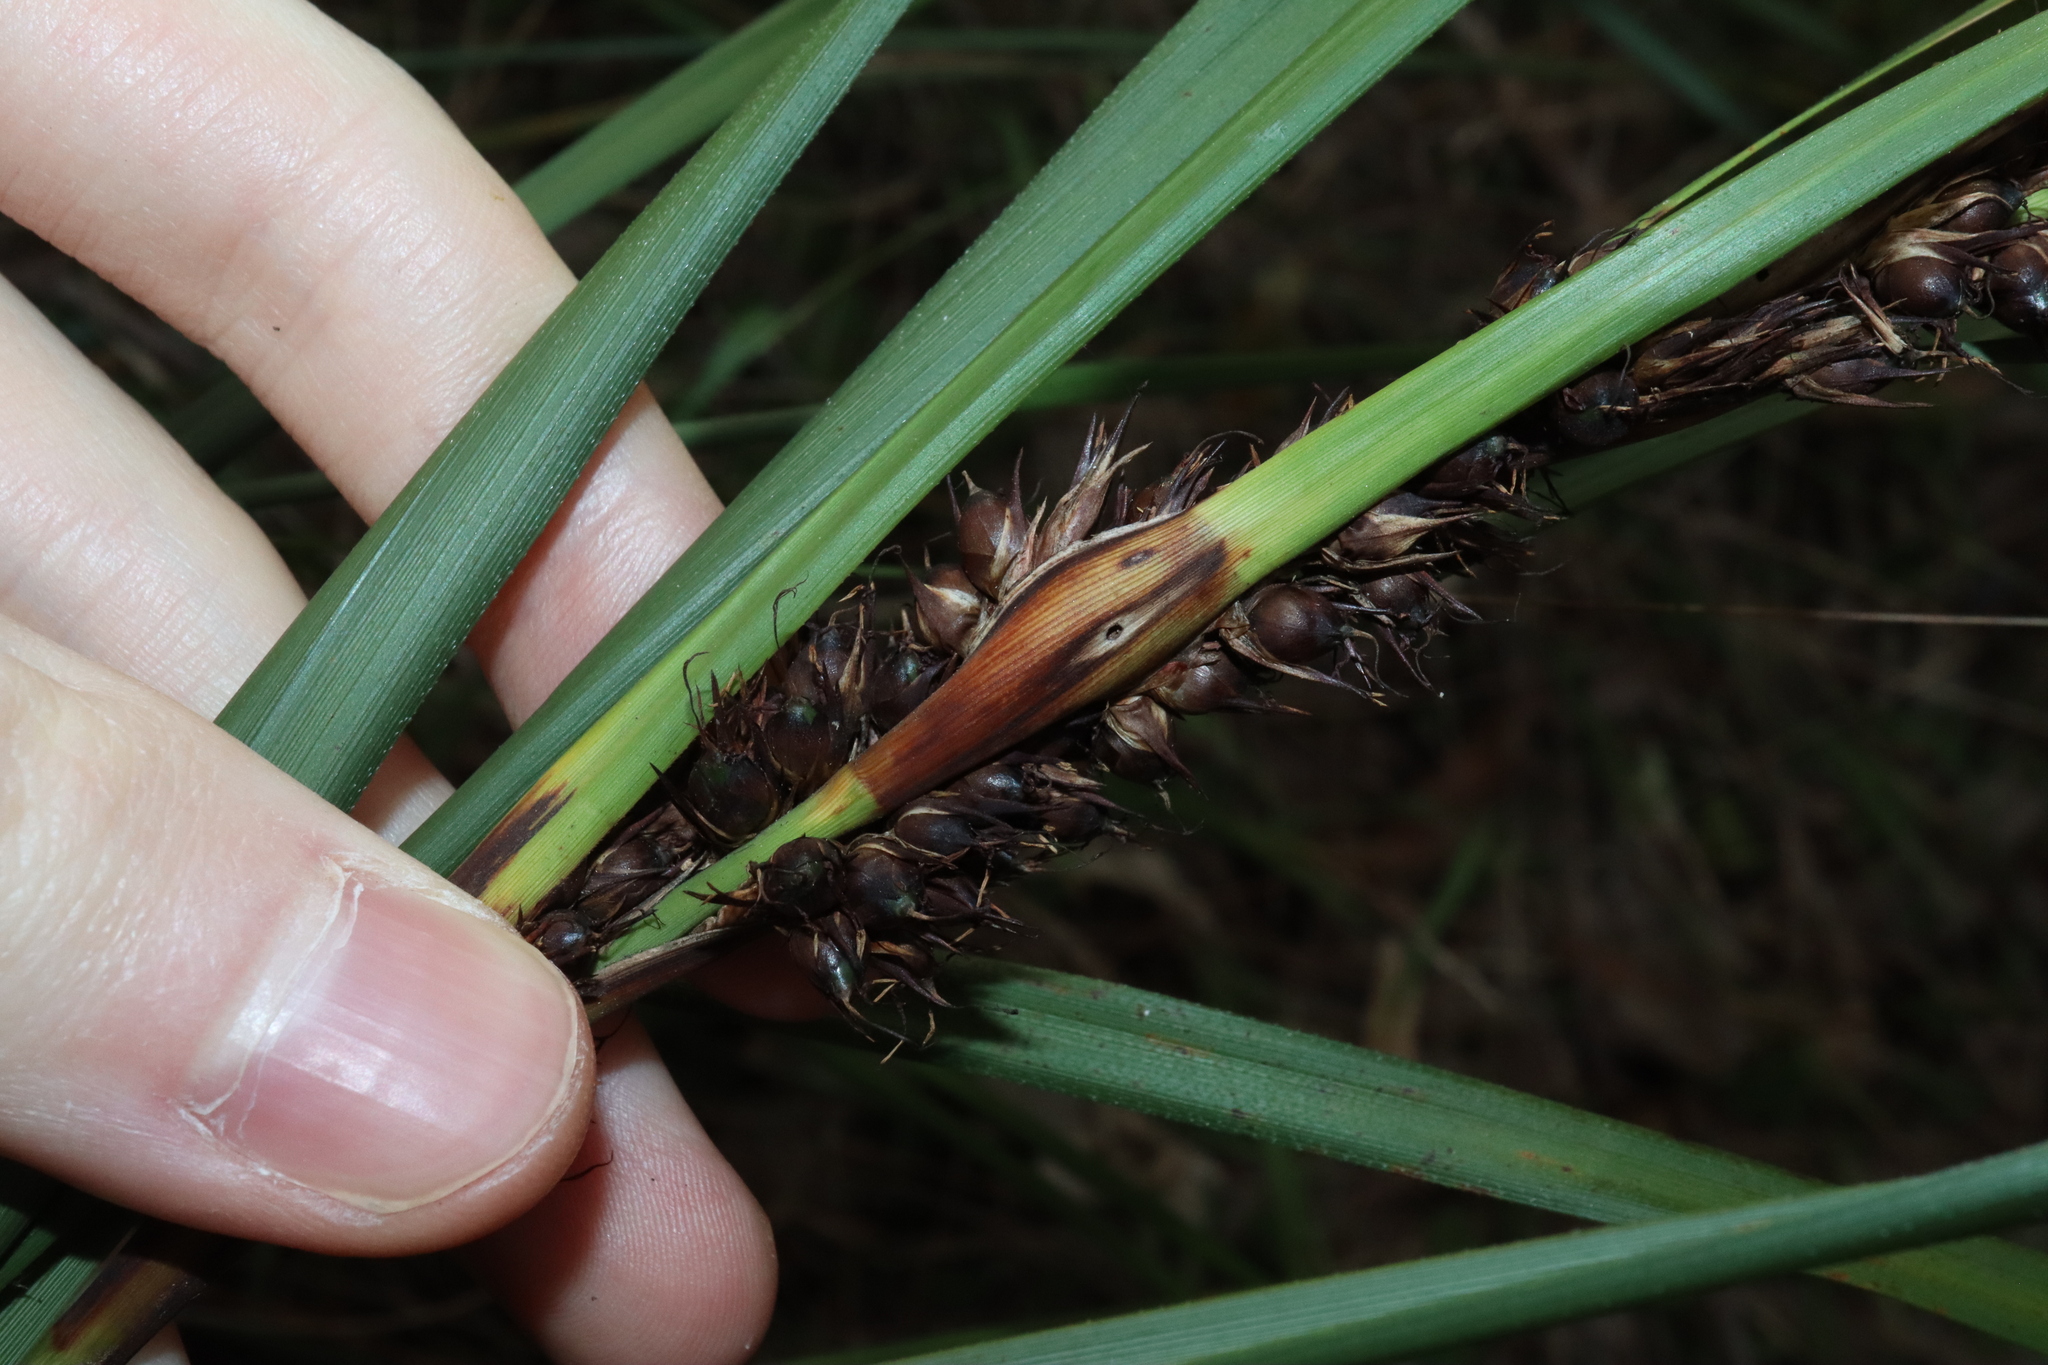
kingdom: Plantae
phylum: Tracheophyta
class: Liliopsida
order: Poales
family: Cyperaceae
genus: Gahnia
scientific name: Gahnia aspera
